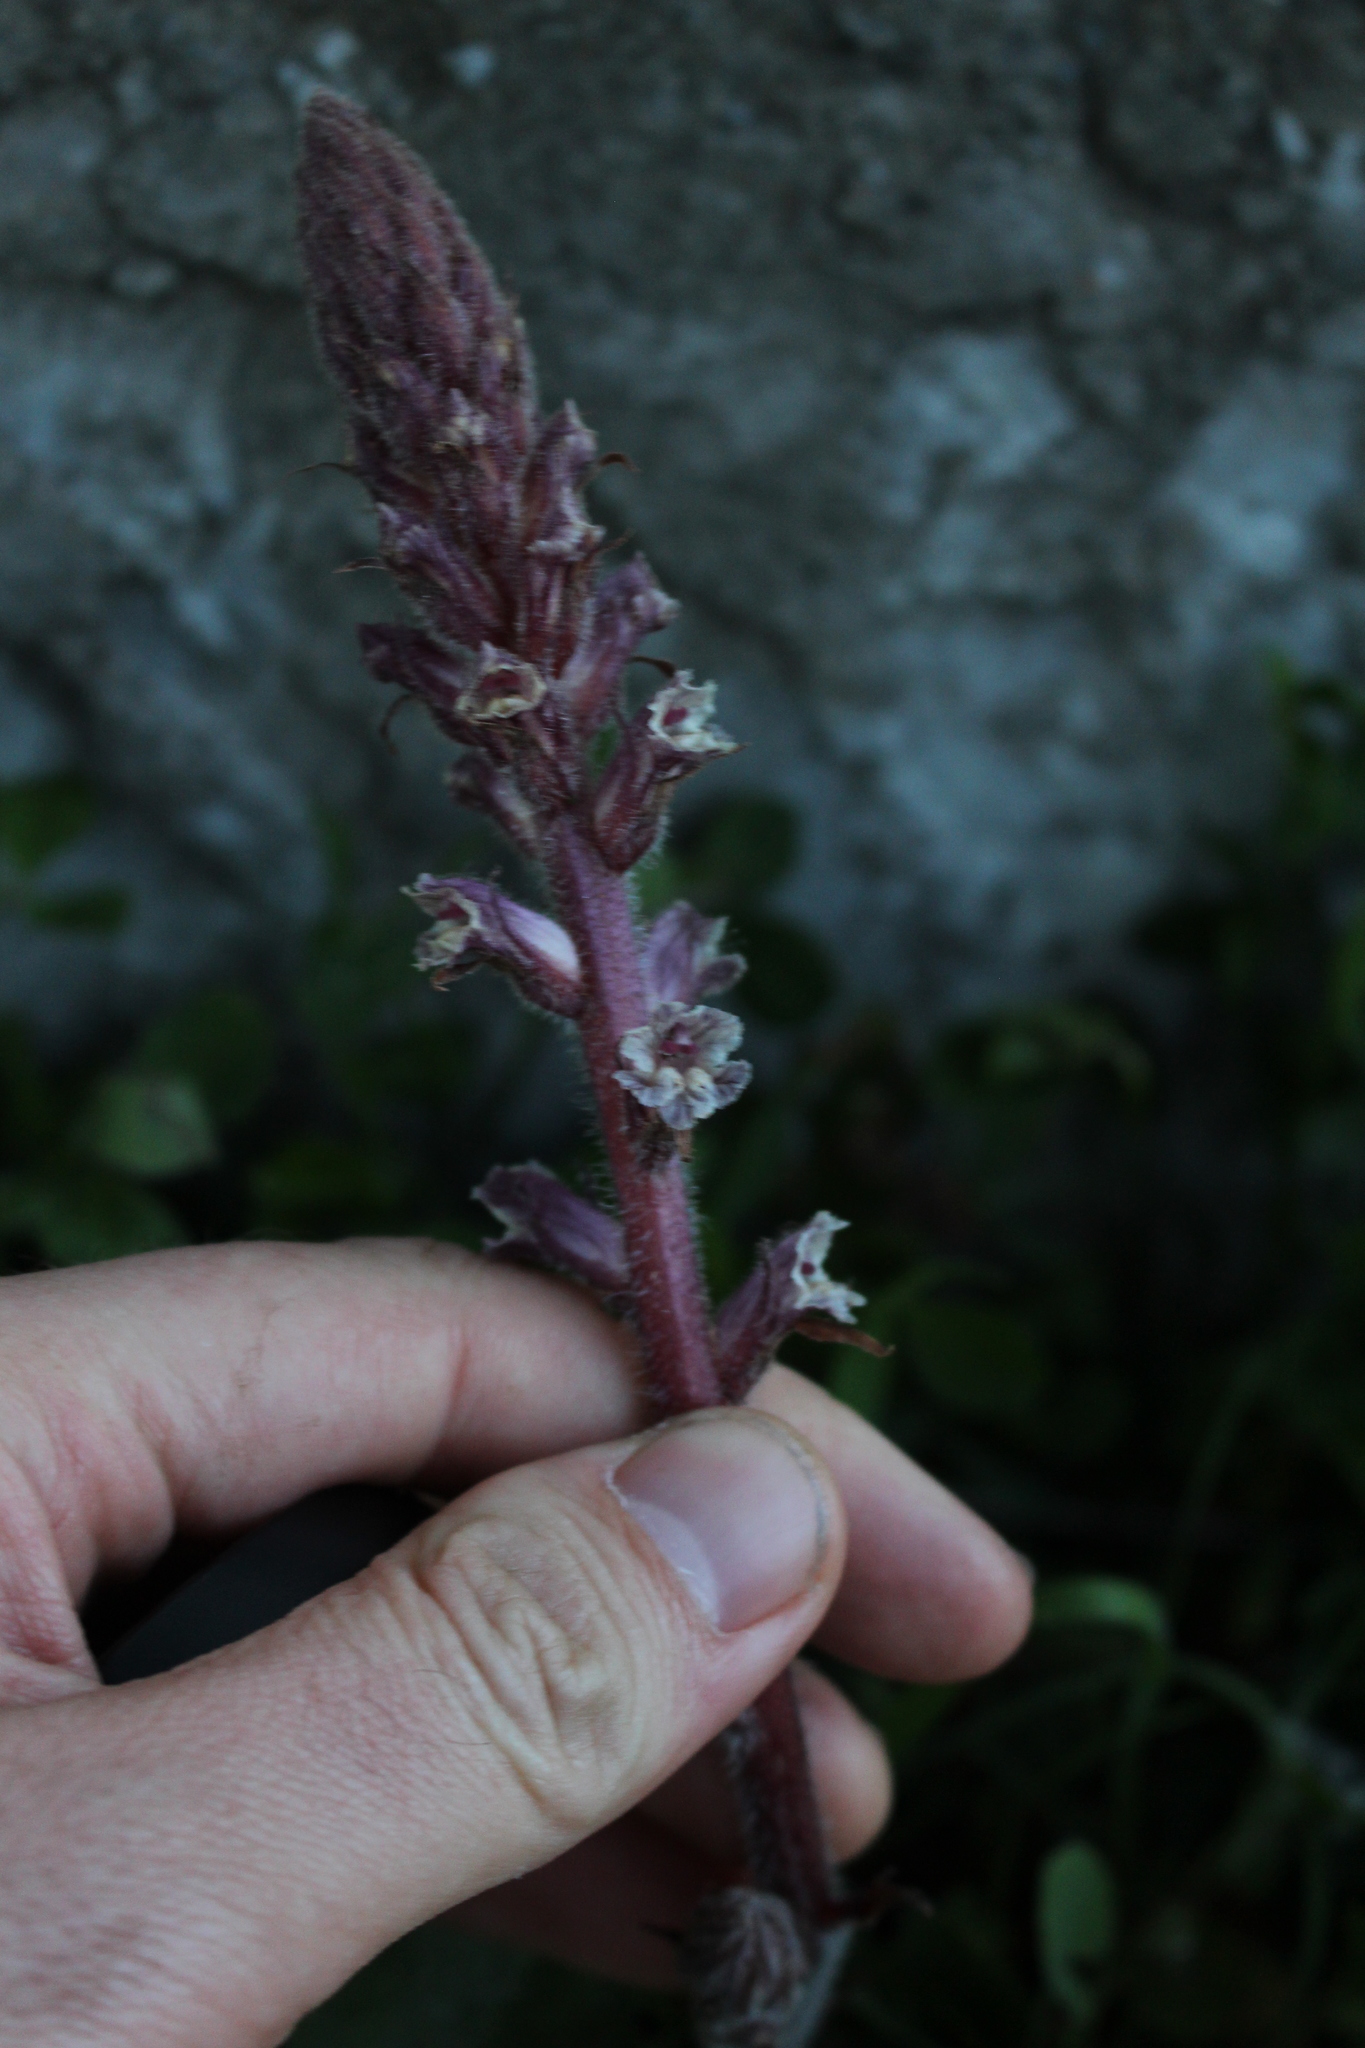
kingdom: Plantae
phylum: Tracheophyta
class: Magnoliopsida
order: Lamiales
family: Orobanchaceae
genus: Orobanche
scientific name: Orobanche minor
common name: Common broomrape
